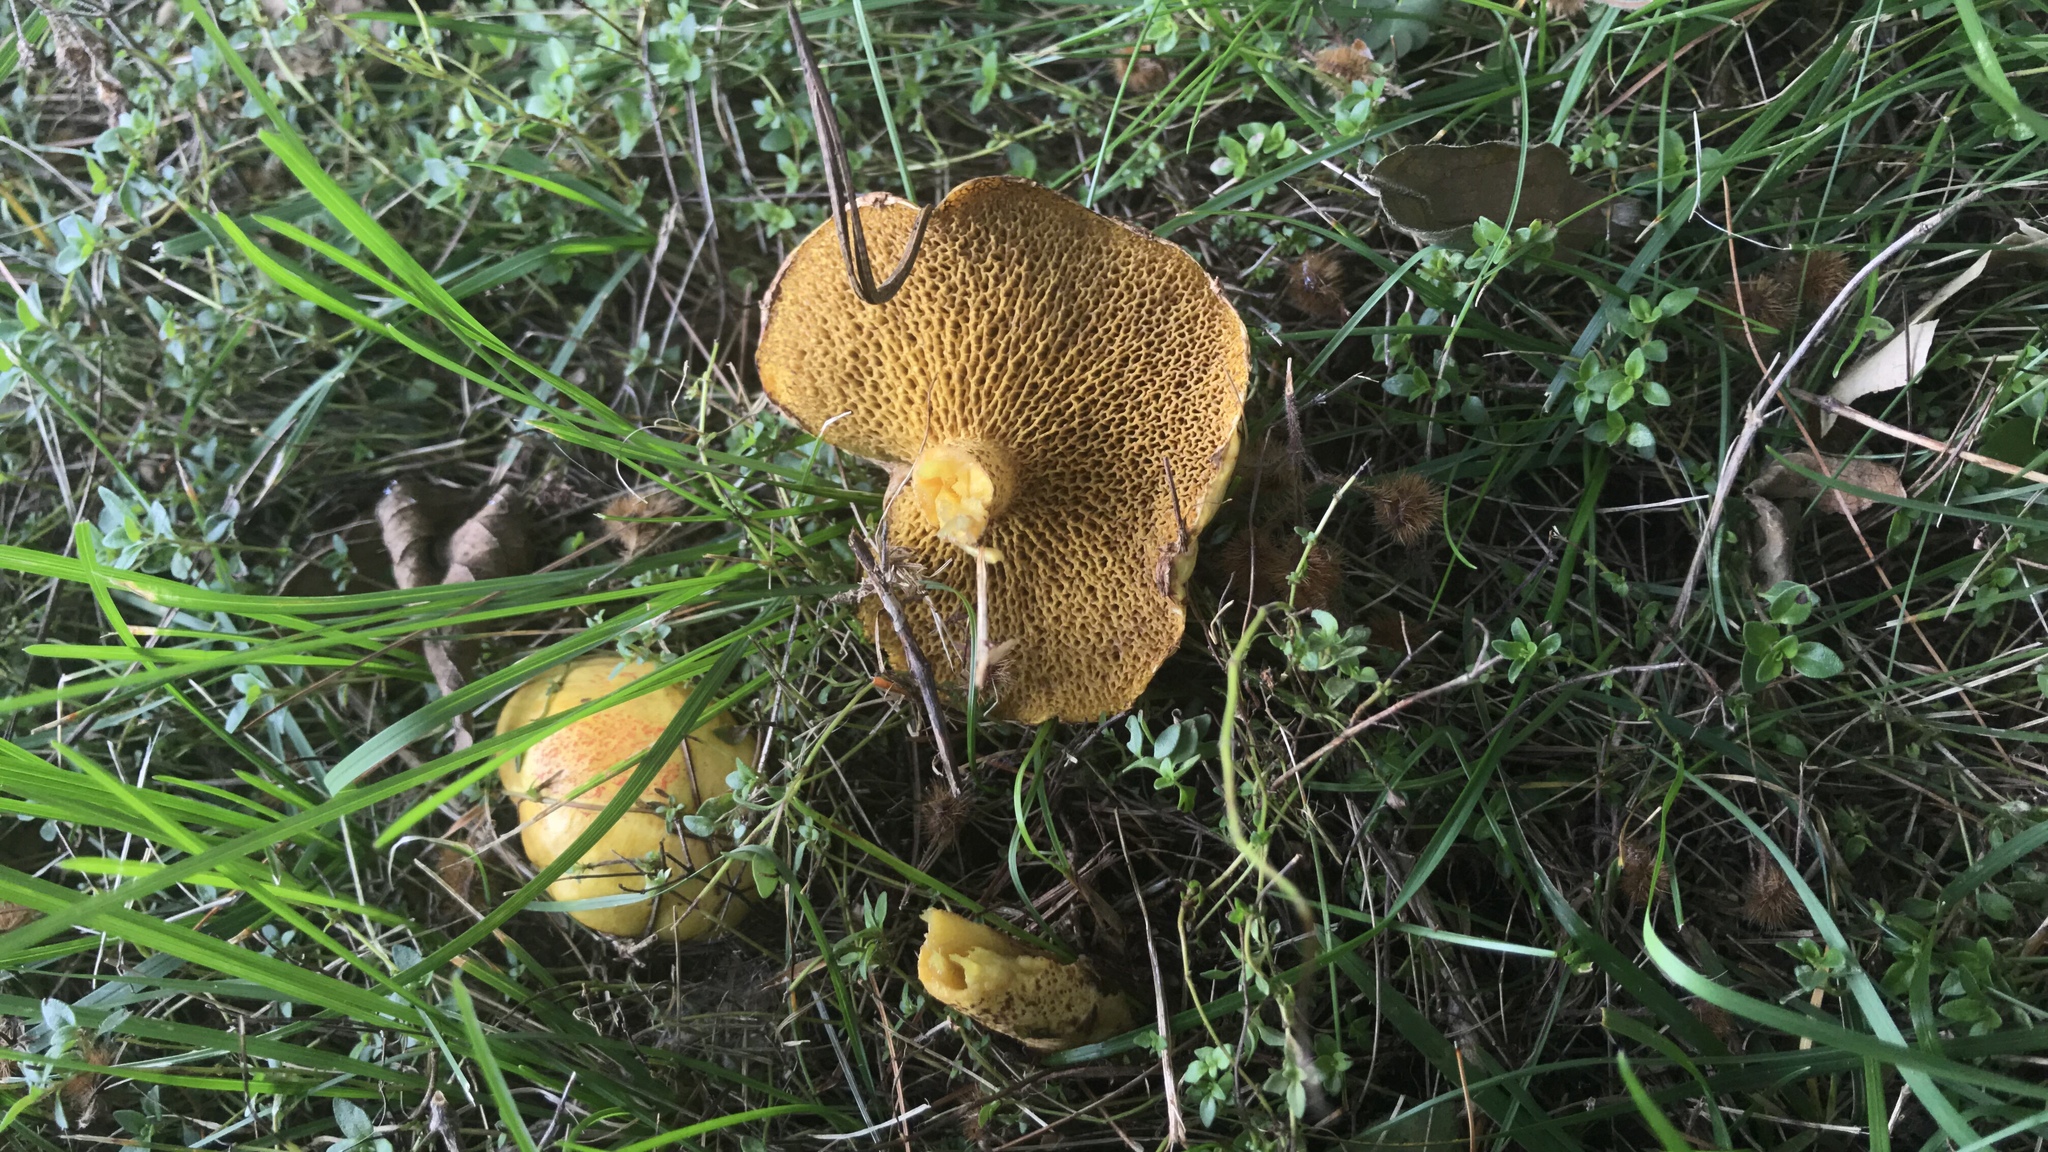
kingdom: Fungi
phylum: Basidiomycota
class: Agaricomycetes
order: Boletales
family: Suillaceae
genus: Suillus
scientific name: Suillus americanus
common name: Chicken fat mushroom
